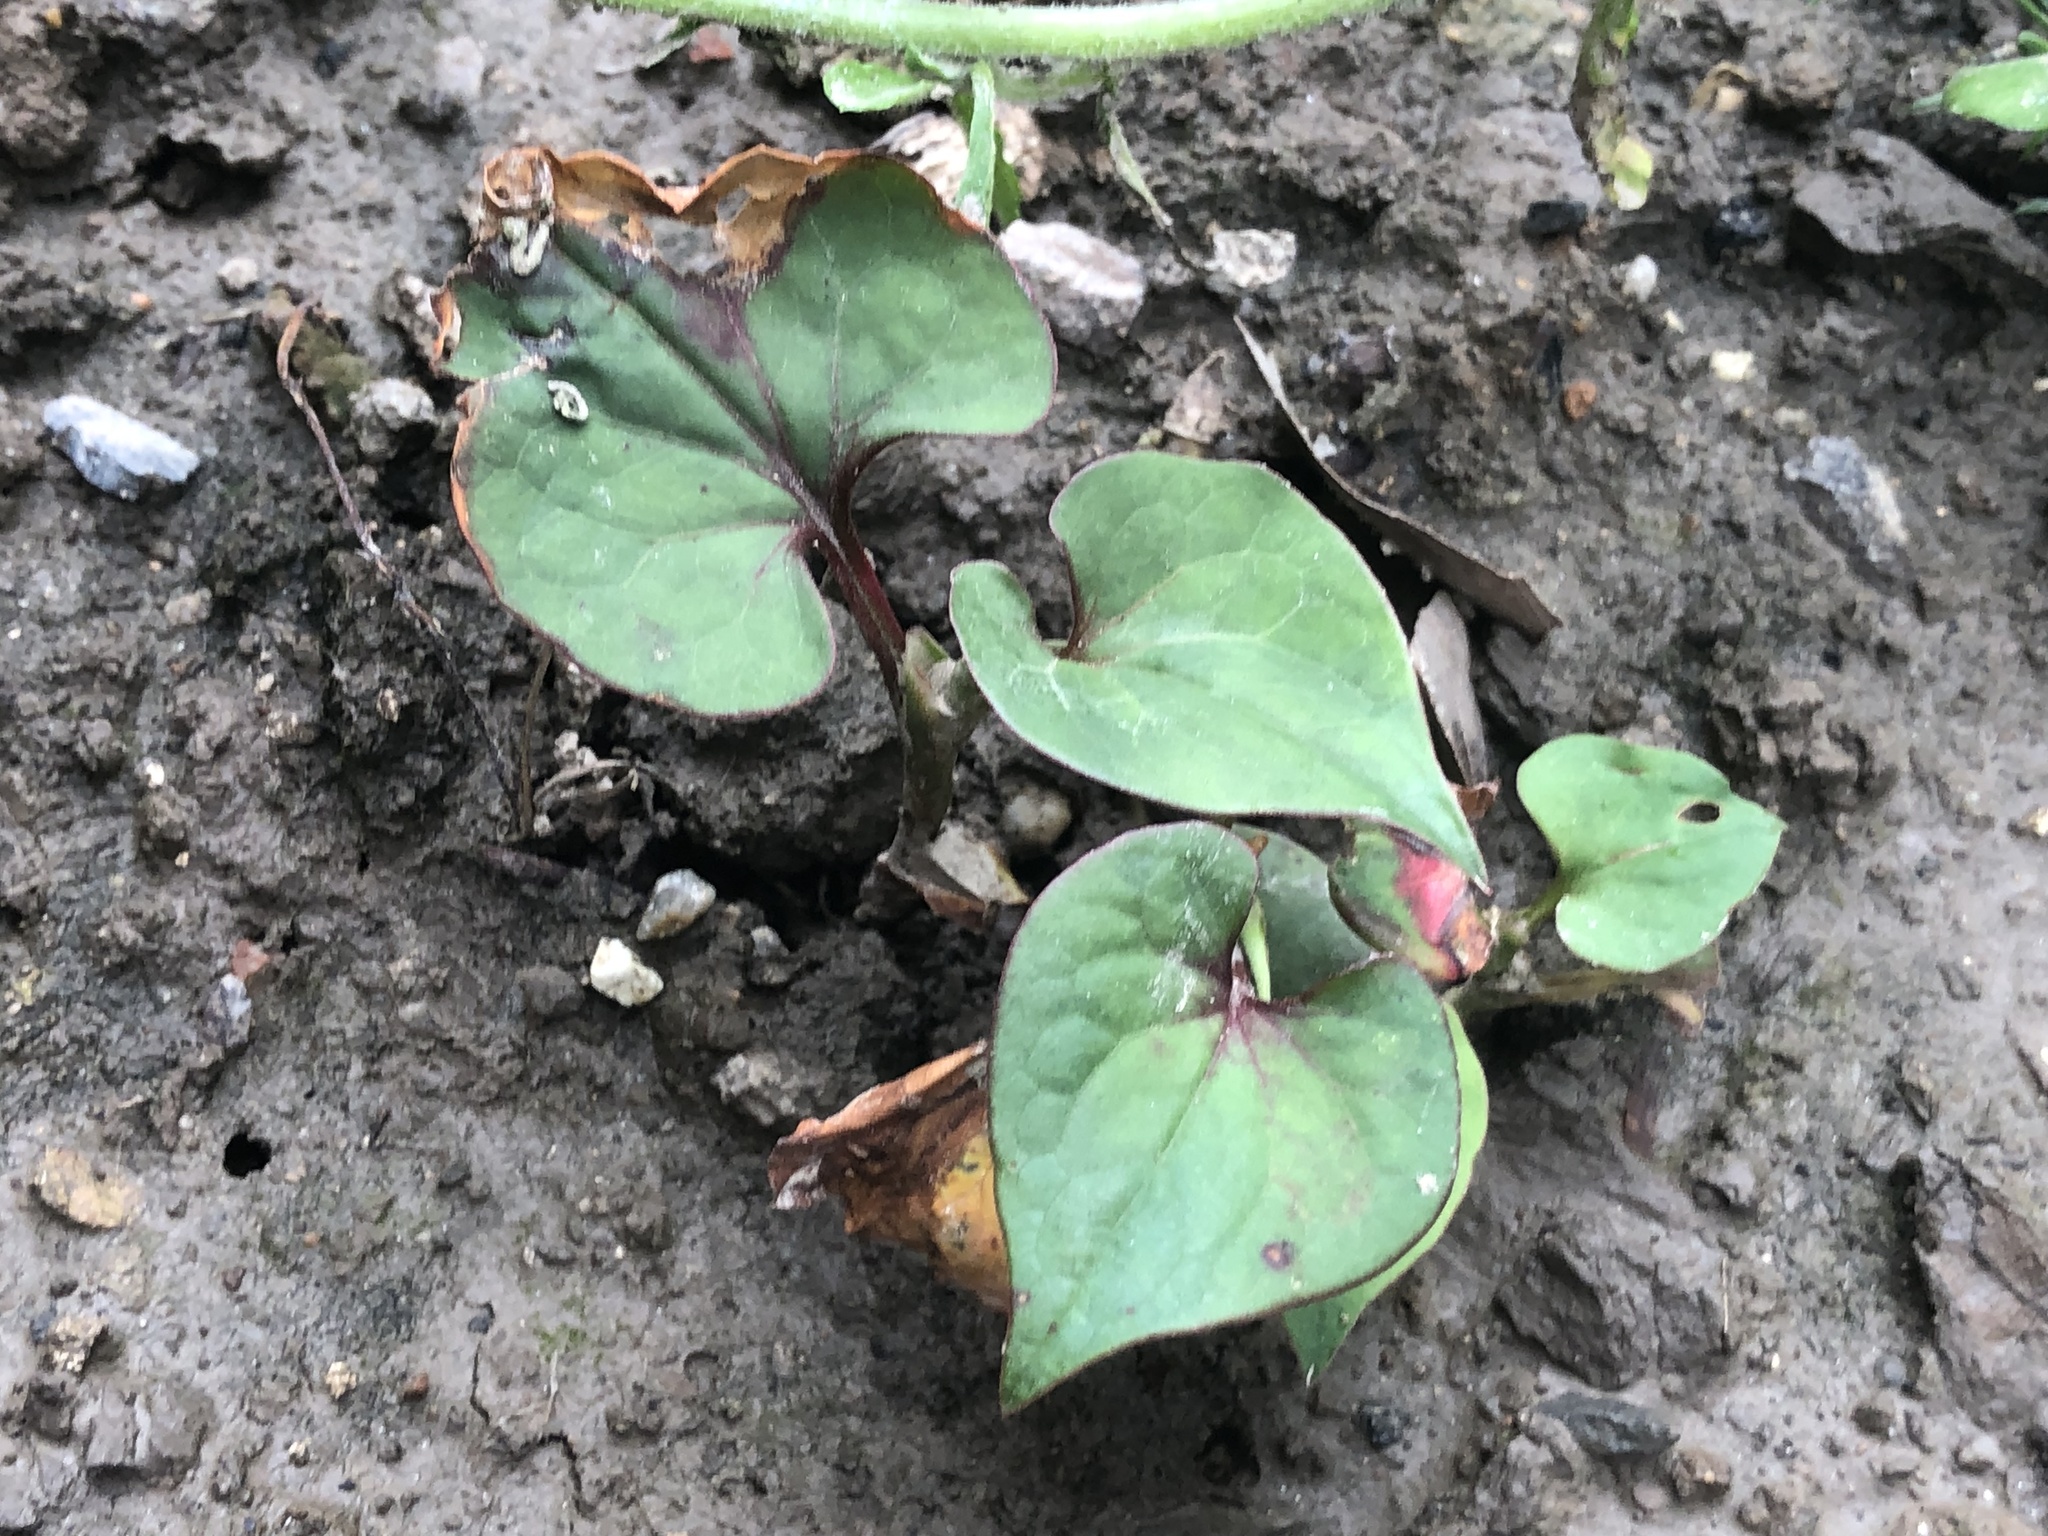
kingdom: Plantae
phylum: Tracheophyta
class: Magnoliopsida
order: Piperales
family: Saururaceae
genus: Houttuynia
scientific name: Houttuynia cordata
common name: Chameleon
